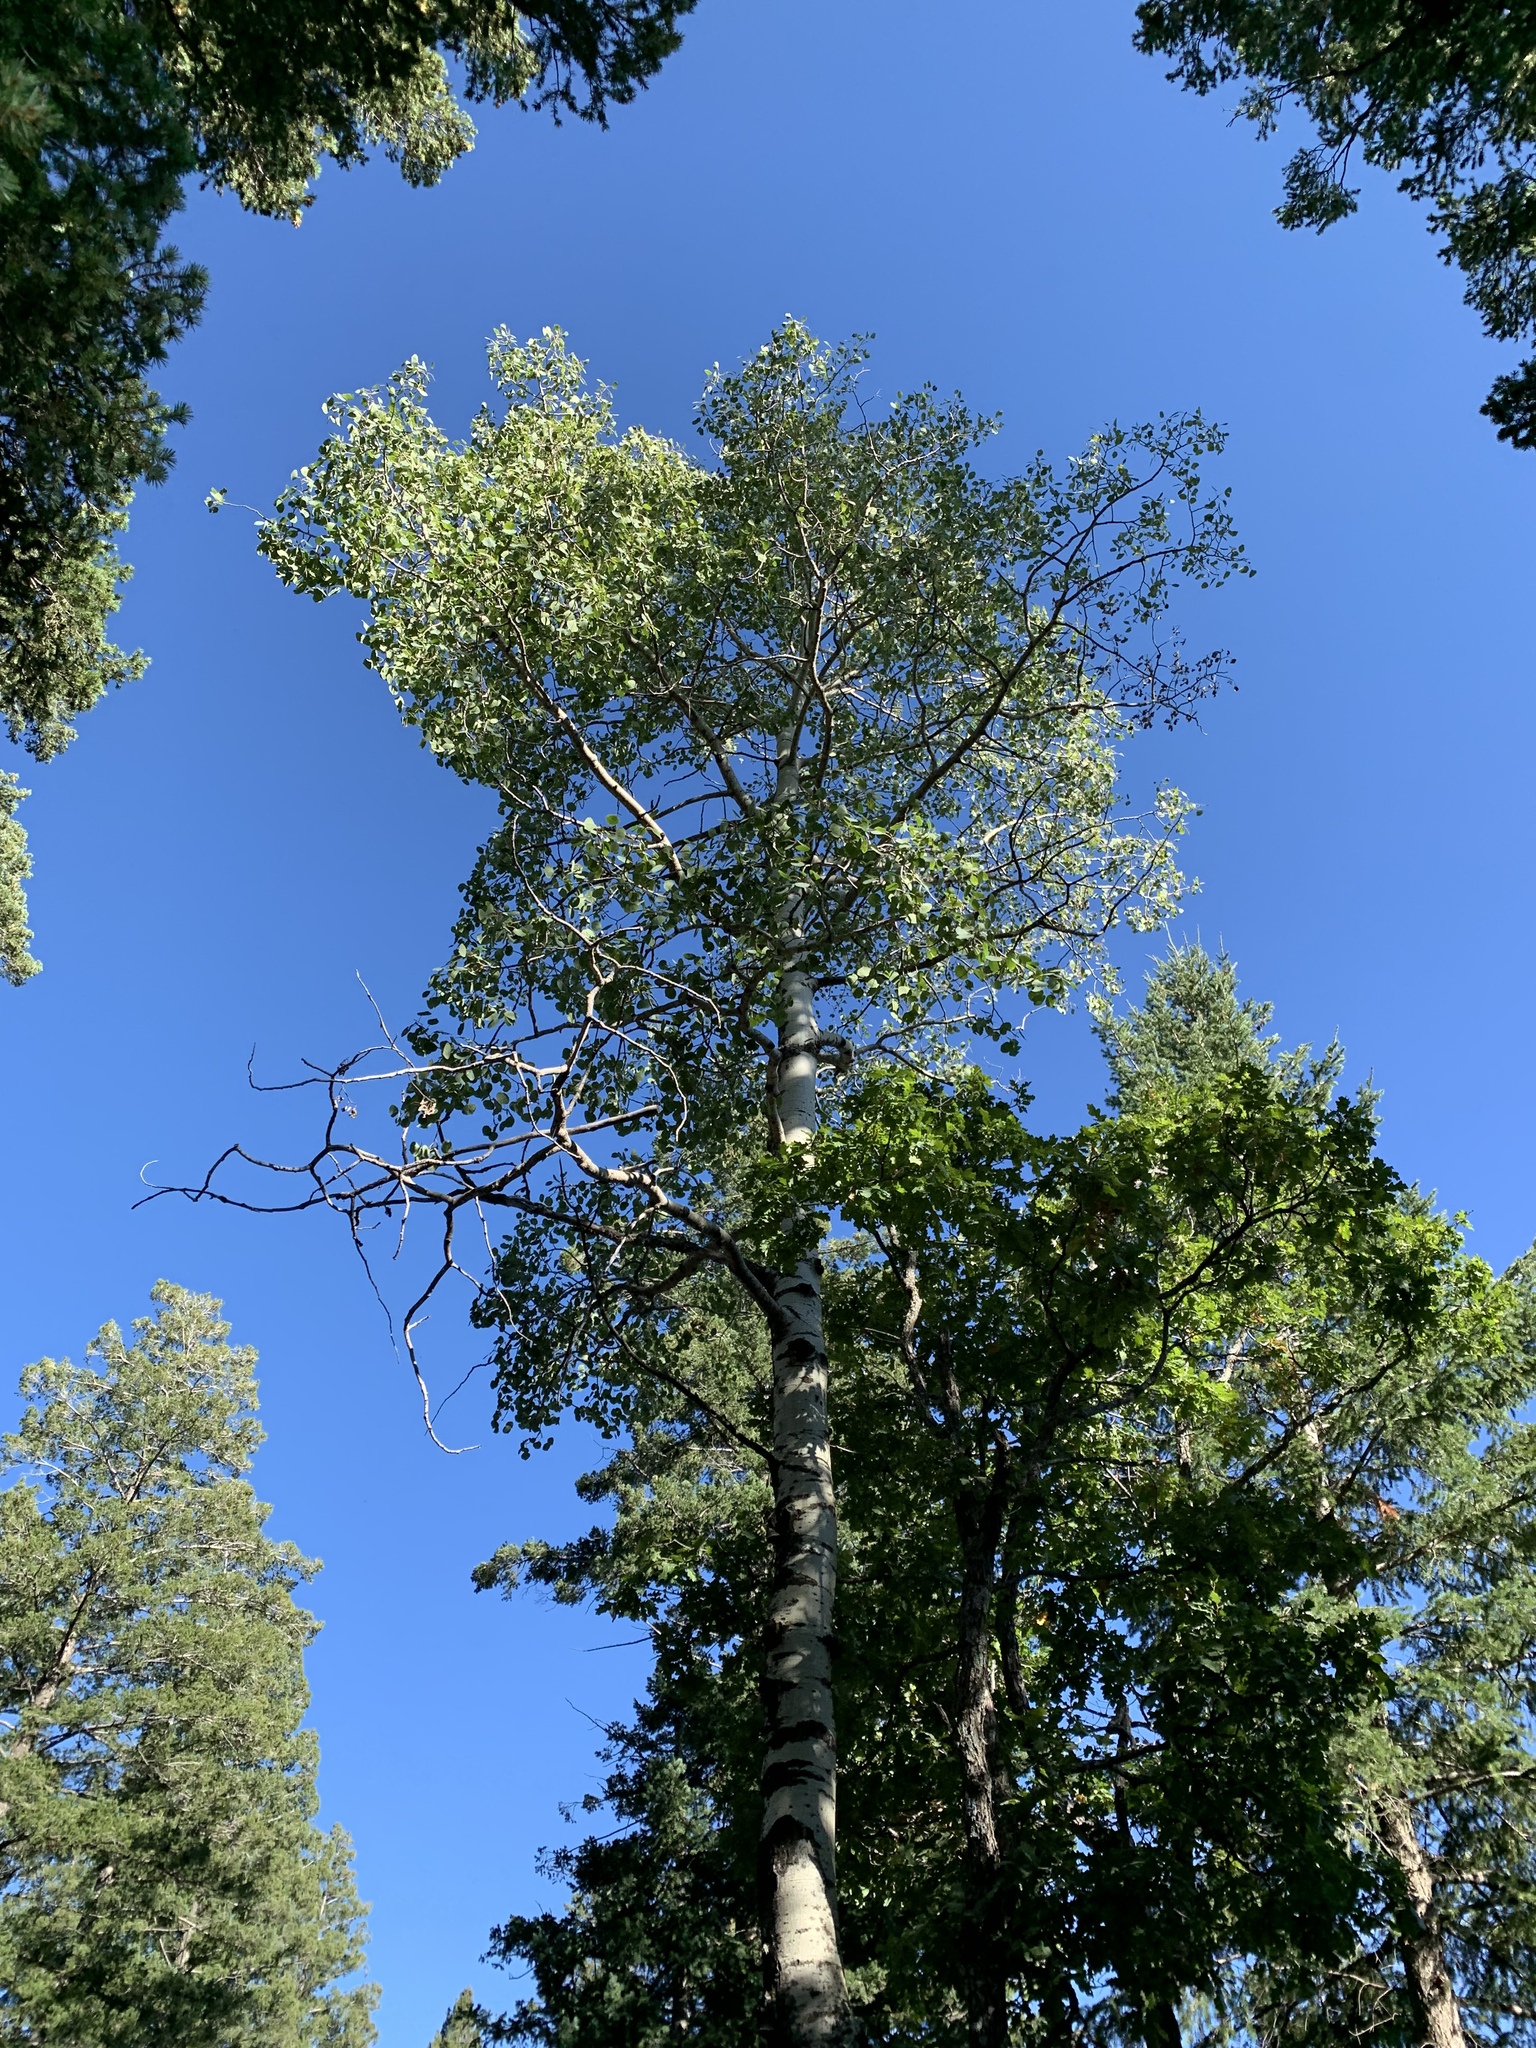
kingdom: Plantae
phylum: Tracheophyta
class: Magnoliopsida
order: Malpighiales
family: Salicaceae
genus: Populus
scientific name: Populus tremuloides
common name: Quaking aspen
